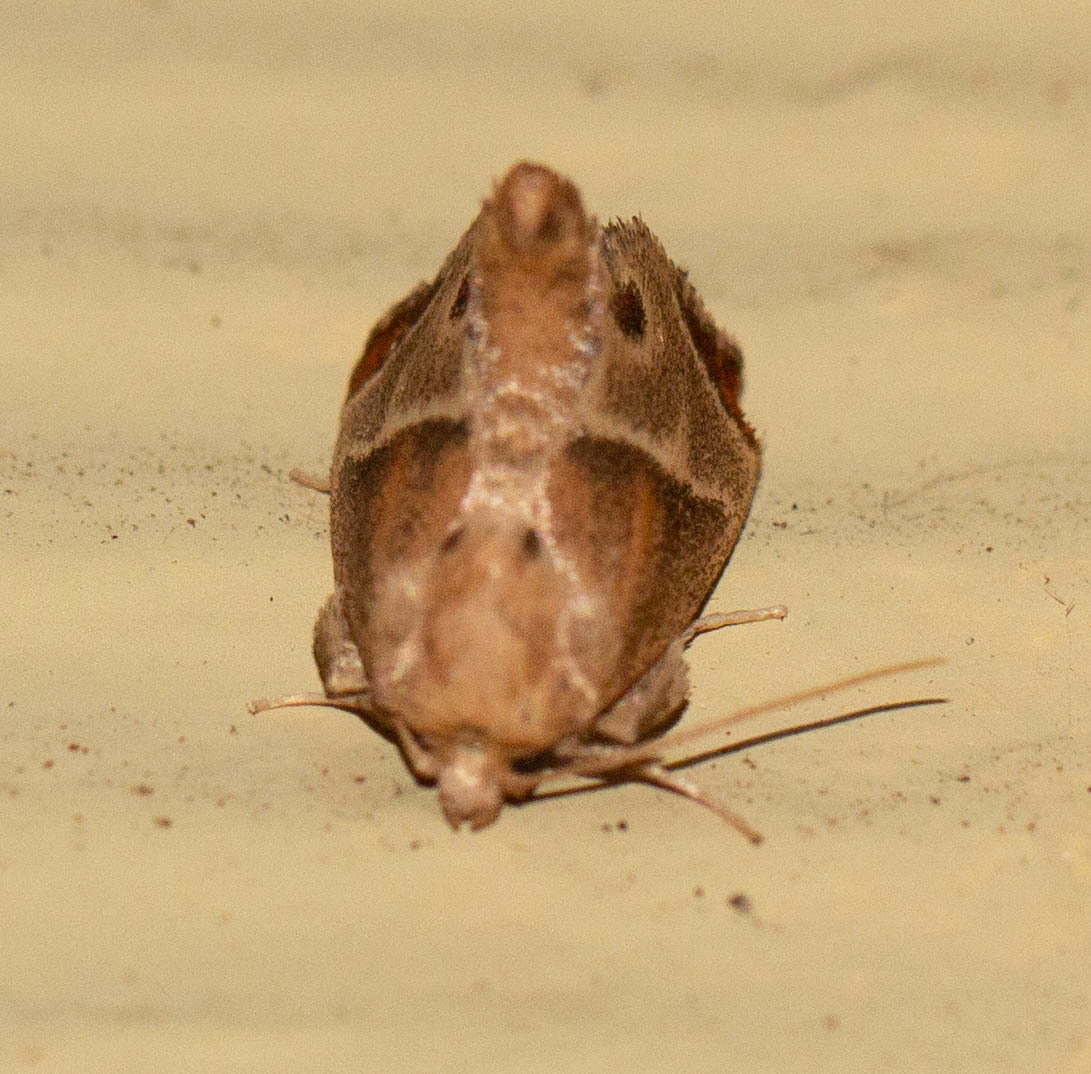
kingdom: Animalia
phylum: Arthropoda
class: Insecta
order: Lepidoptera
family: Limacodidae
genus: Apoda
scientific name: Apoda biguttata
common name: Shagreened slug moth
